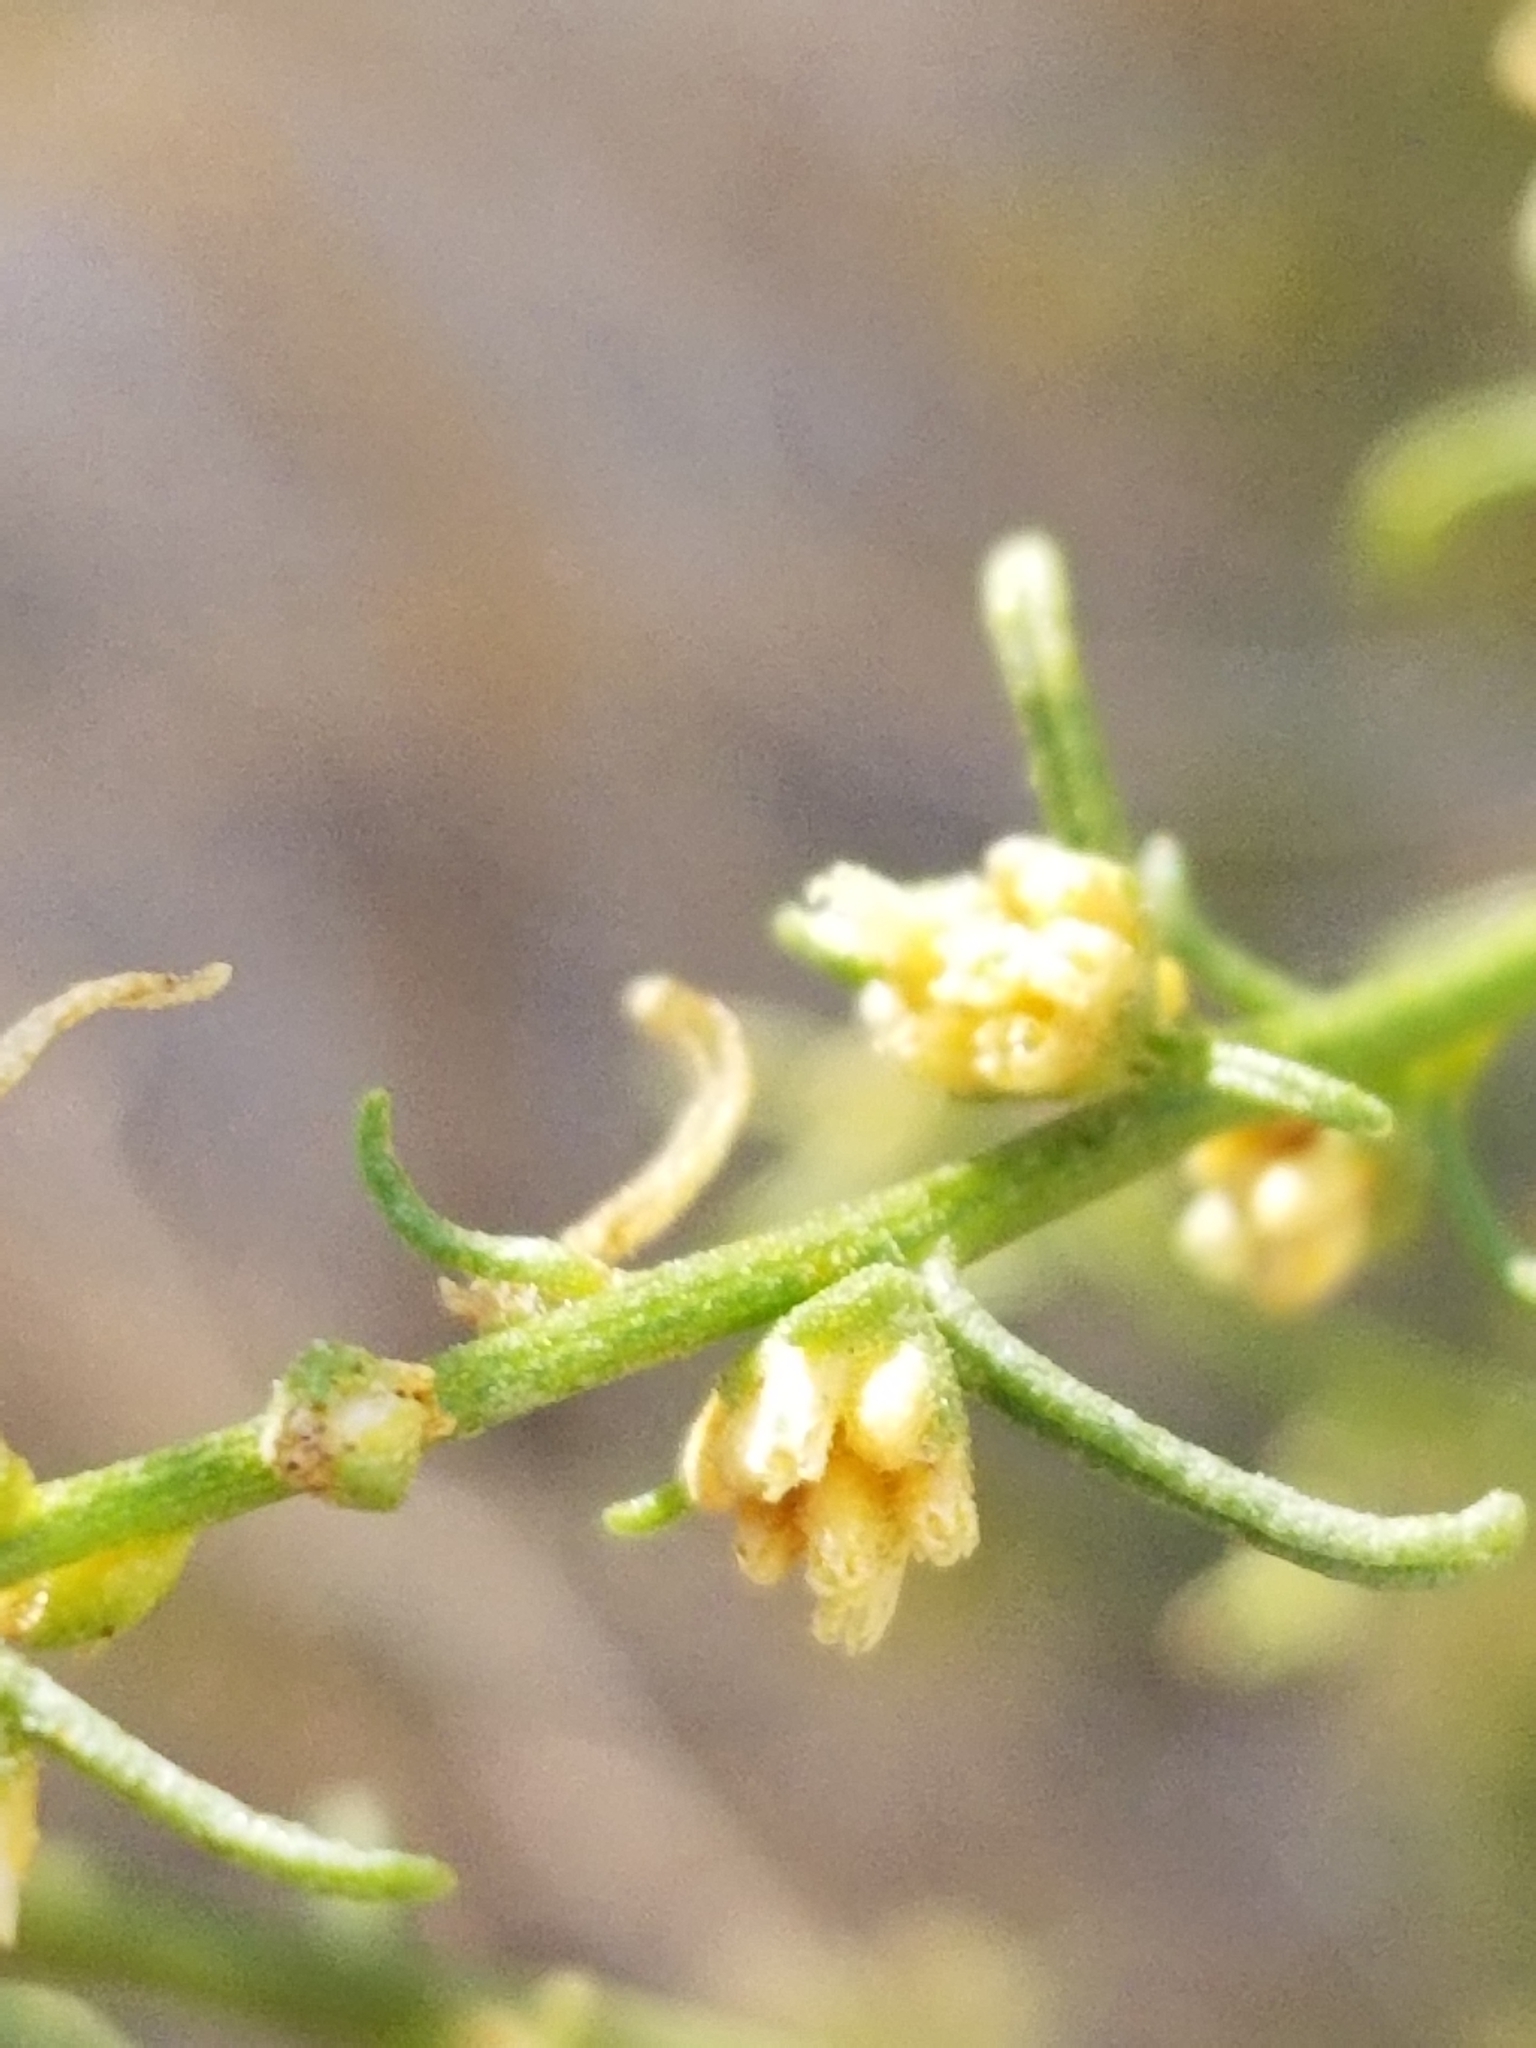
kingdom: Plantae
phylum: Tracheophyta
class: Magnoliopsida
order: Asterales
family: Asteraceae
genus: Ambrosia
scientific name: Ambrosia salsola
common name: Burrobrush
